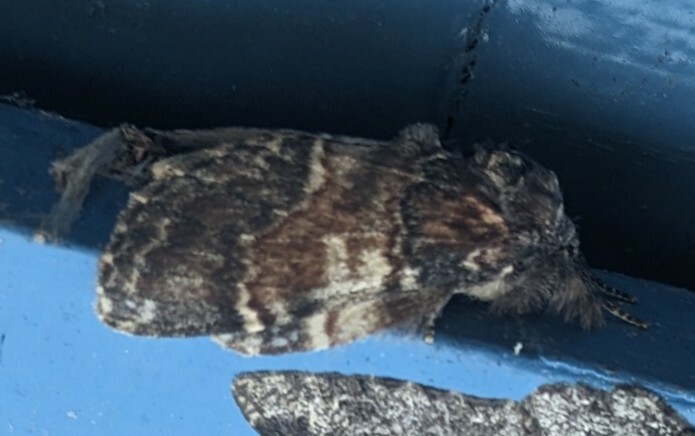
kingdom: Animalia
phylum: Arthropoda
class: Insecta
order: Lepidoptera
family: Notodontidae
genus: Peridea
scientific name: Peridea ferruginea
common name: Chocolate prominent
